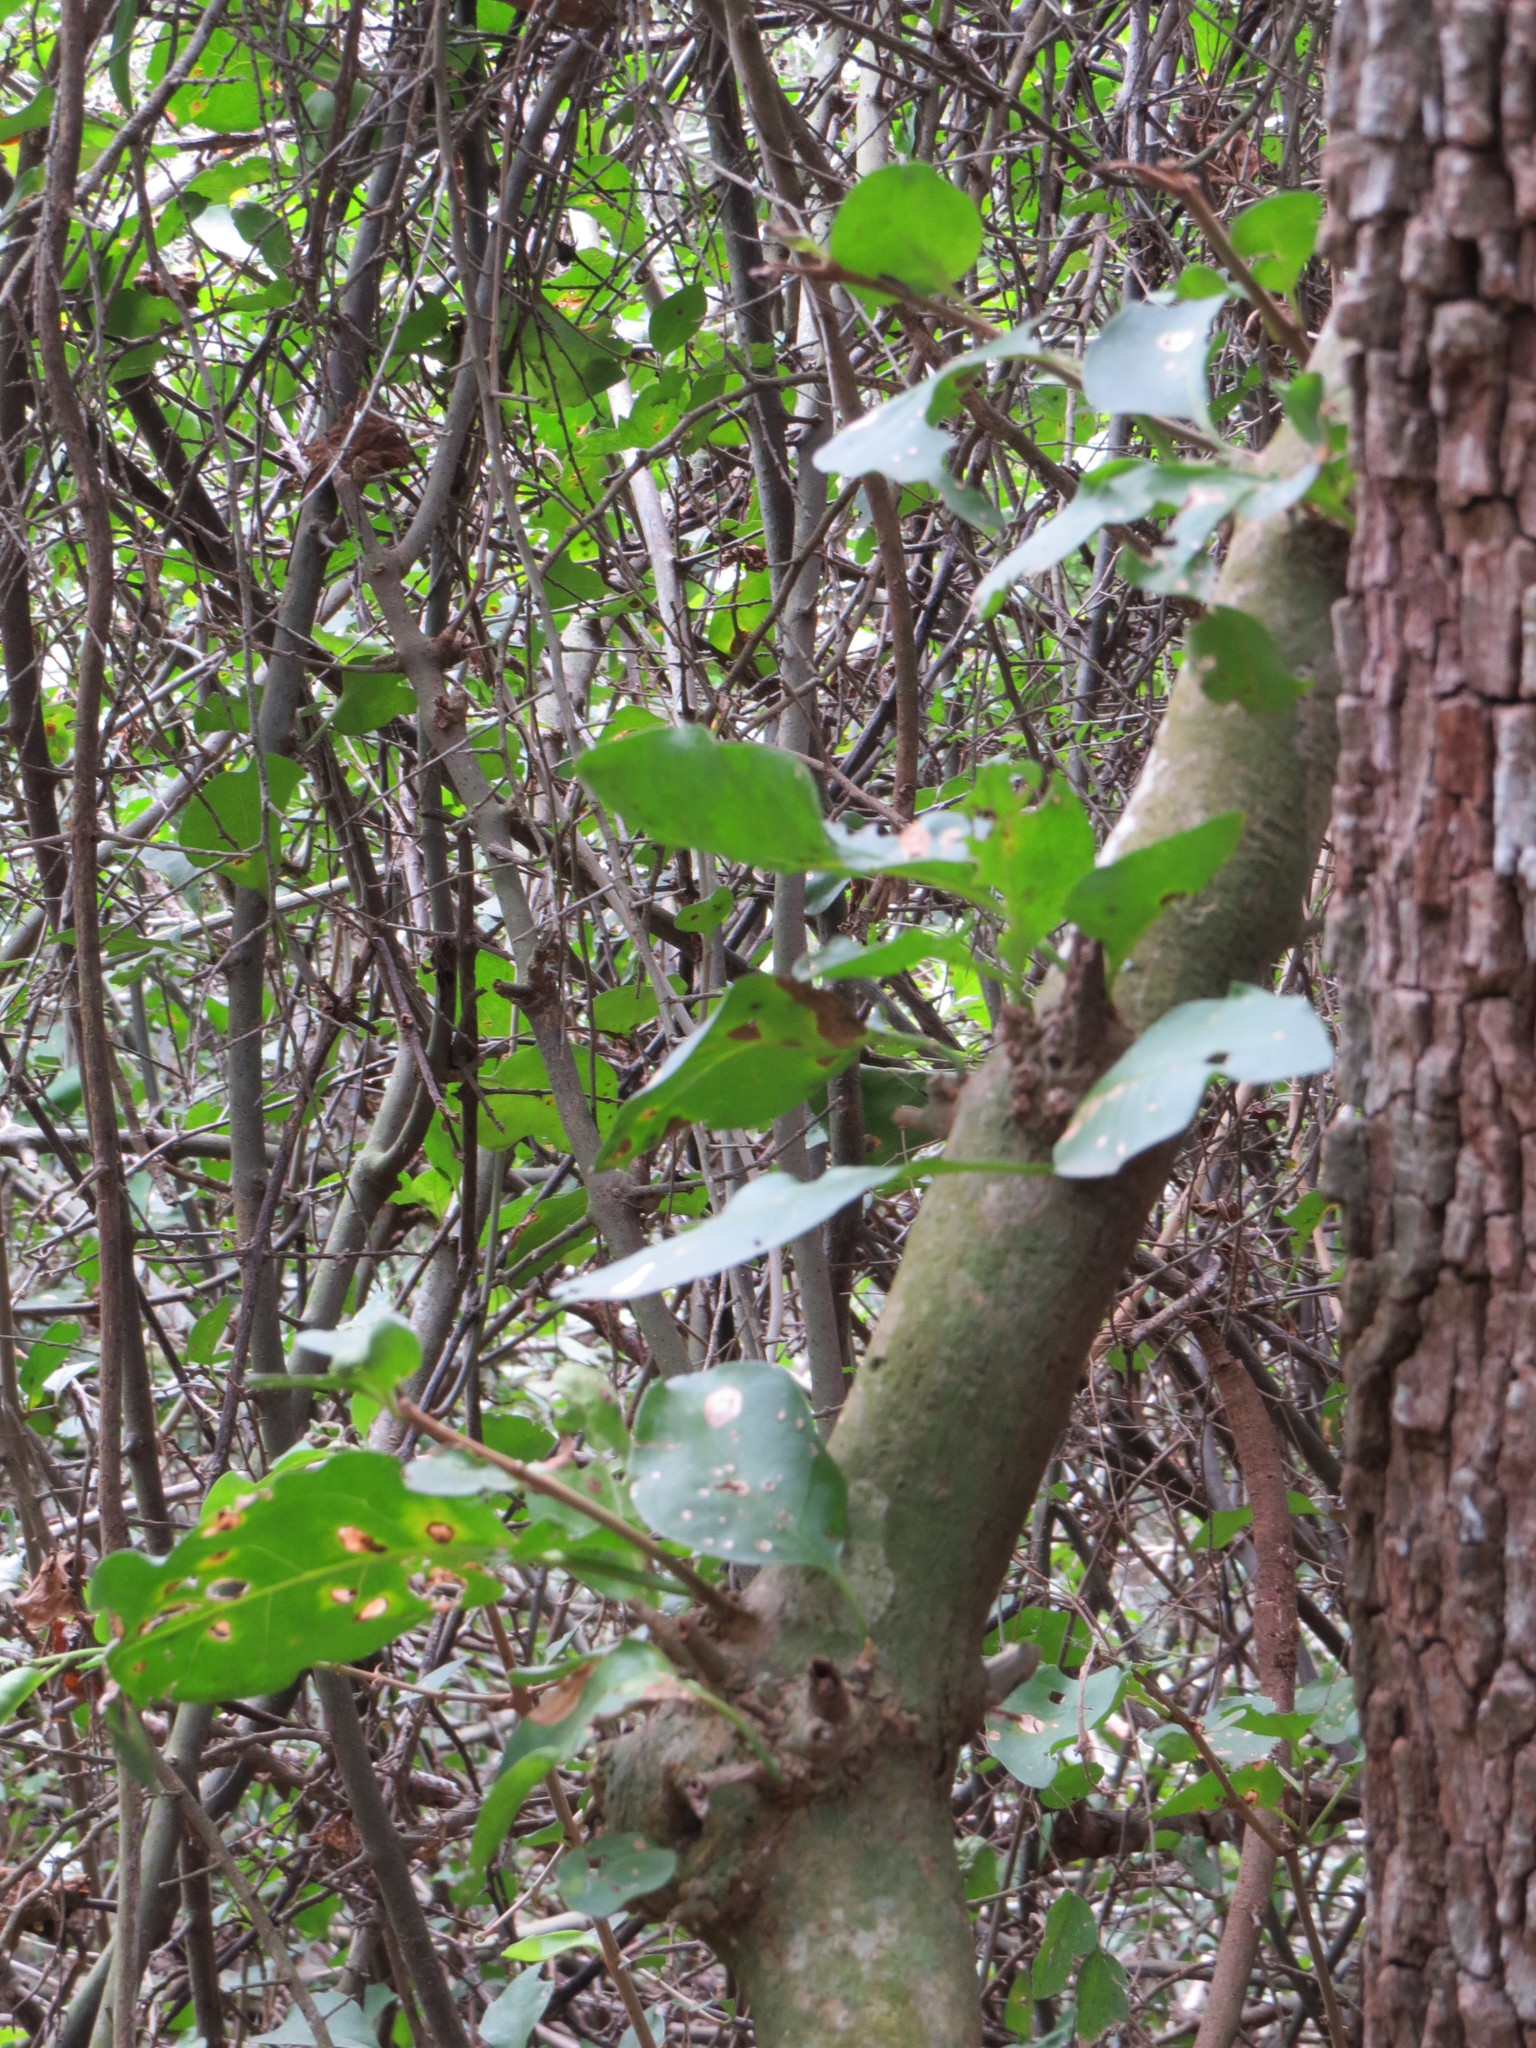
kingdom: Plantae
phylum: Tracheophyta
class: Magnoliopsida
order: Caryophyllales
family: Nyctaginaceae
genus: Pisonia
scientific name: Pisonia aculeata
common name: Cockspur vine
